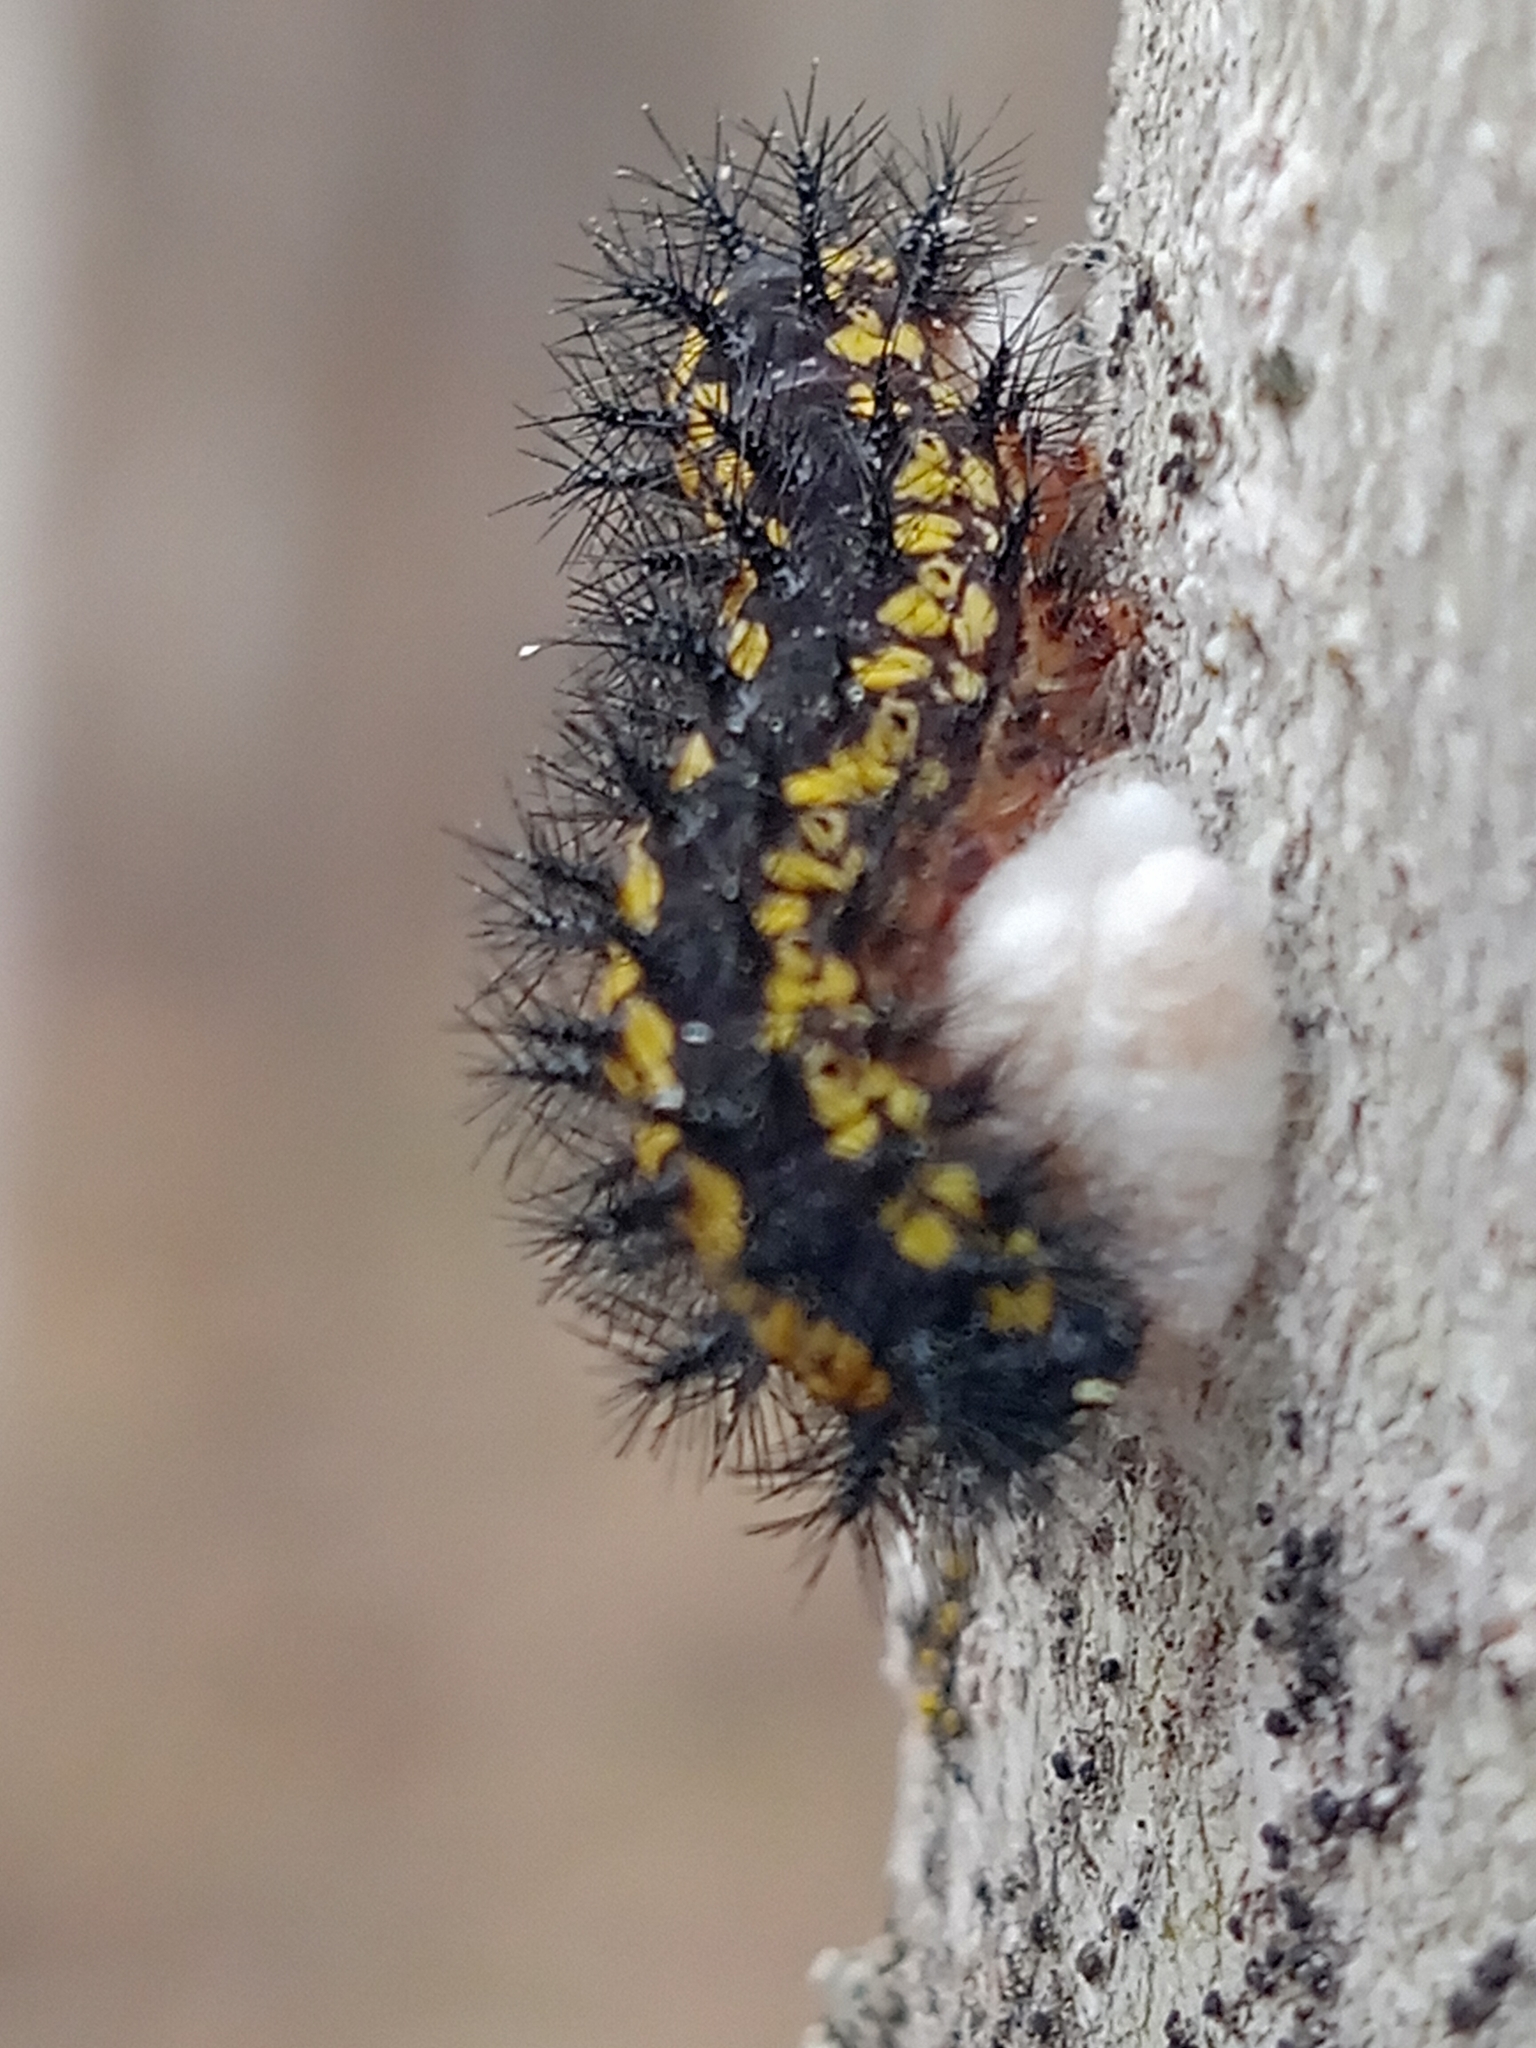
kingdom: Animalia
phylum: Arthropoda
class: Insecta
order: Lepidoptera
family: Nymphalidae
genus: Euphydryas
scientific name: Euphydryas maturna
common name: Scarce fritillary
